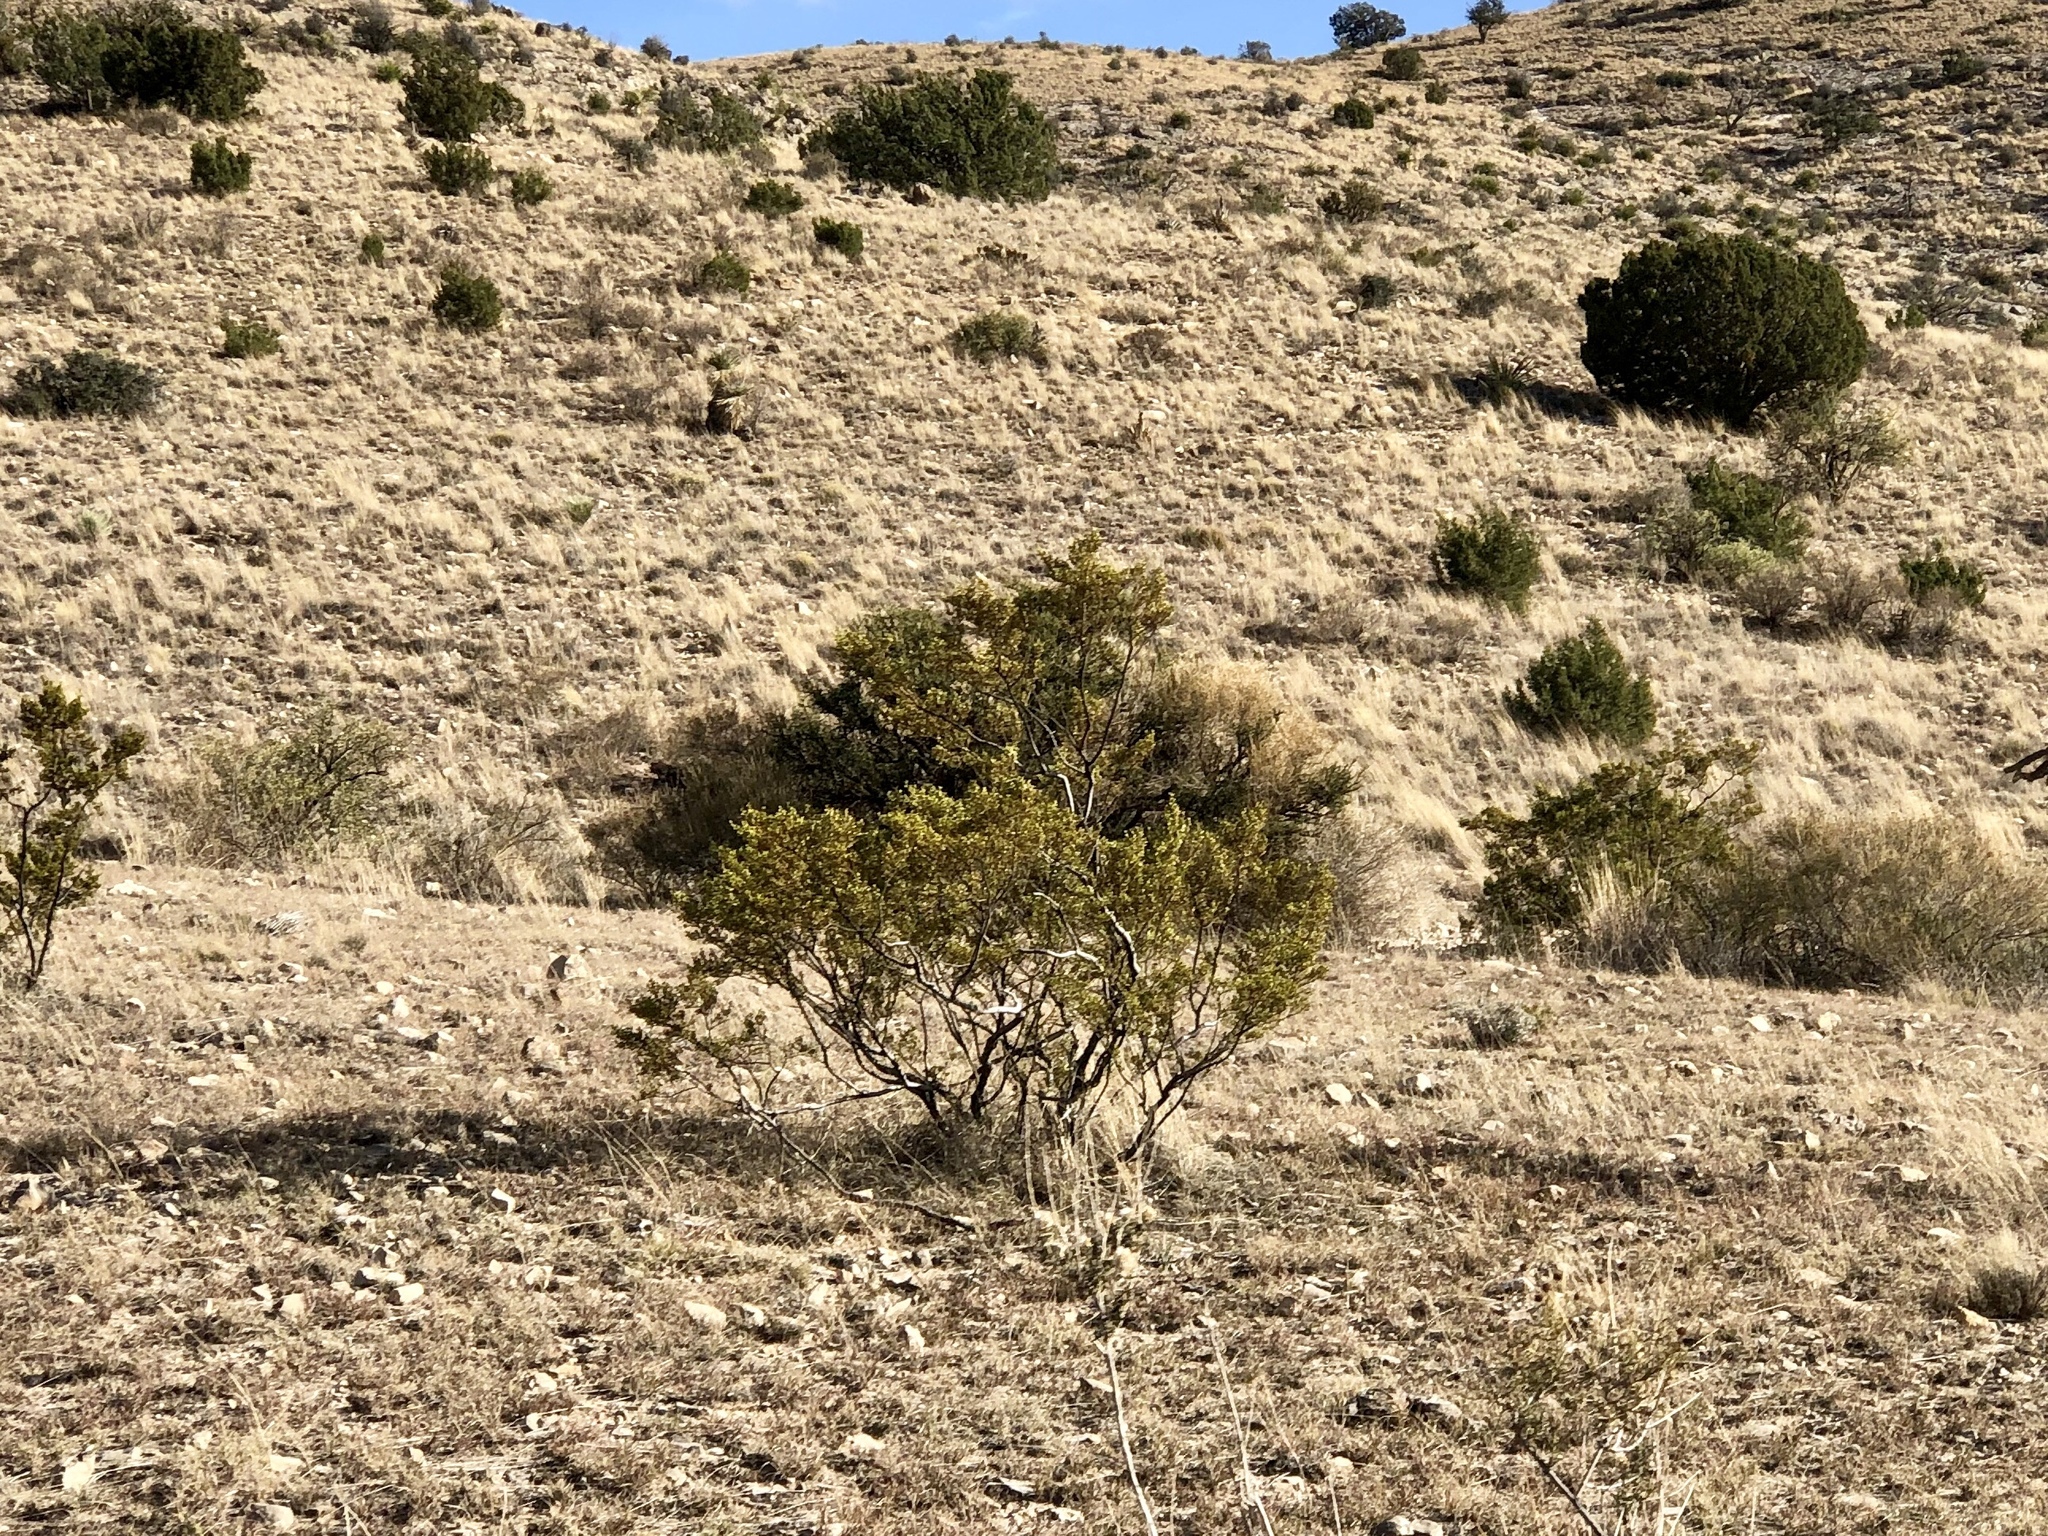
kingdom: Plantae
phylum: Tracheophyta
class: Magnoliopsida
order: Zygophyllales
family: Zygophyllaceae
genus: Larrea
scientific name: Larrea tridentata
